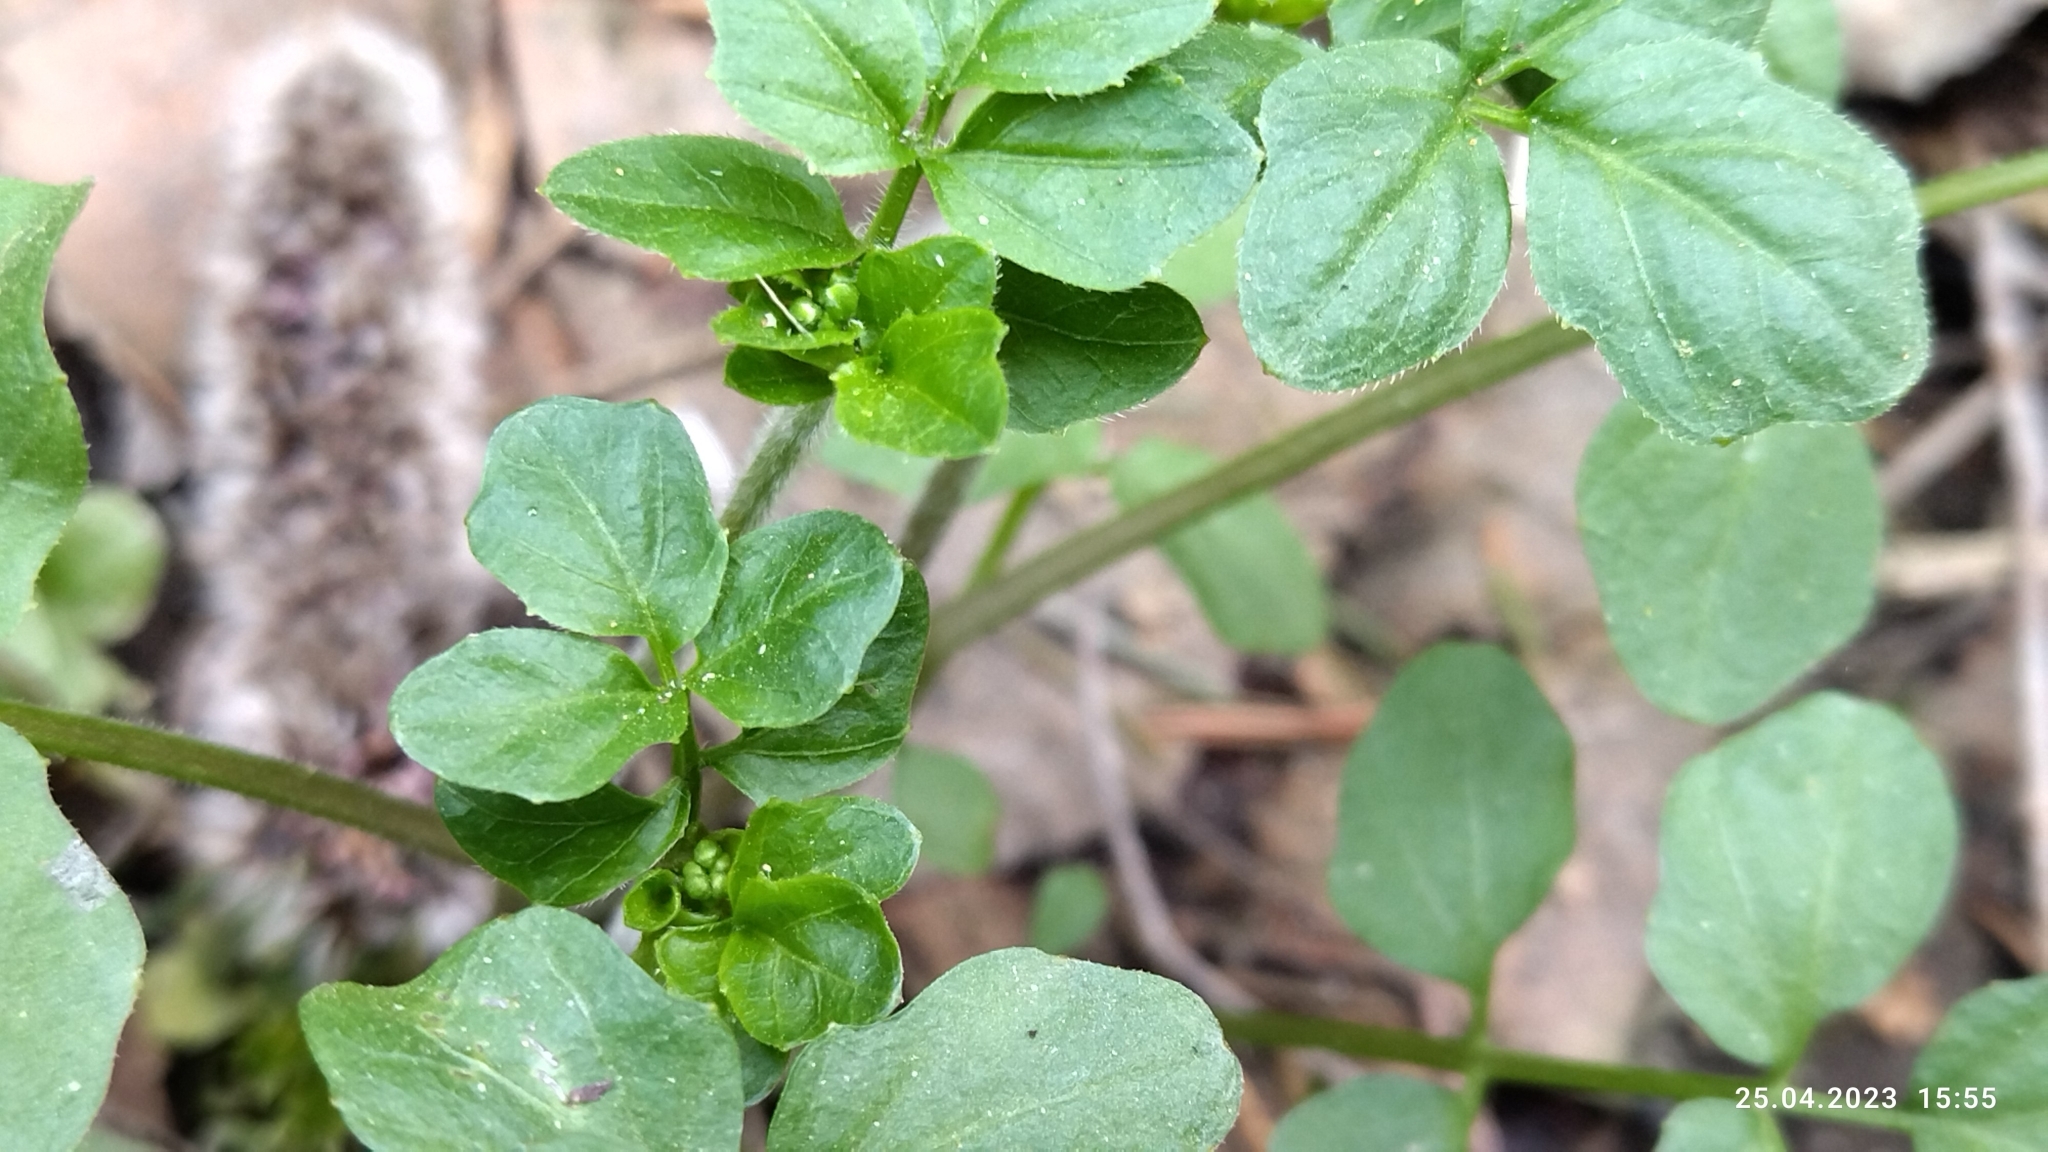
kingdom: Plantae
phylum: Tracheophyta
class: Magnoliopsida
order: Brassicales
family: Brassicaceae
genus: Cardamine
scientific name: Cardamine amara
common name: Large bitter-cress
